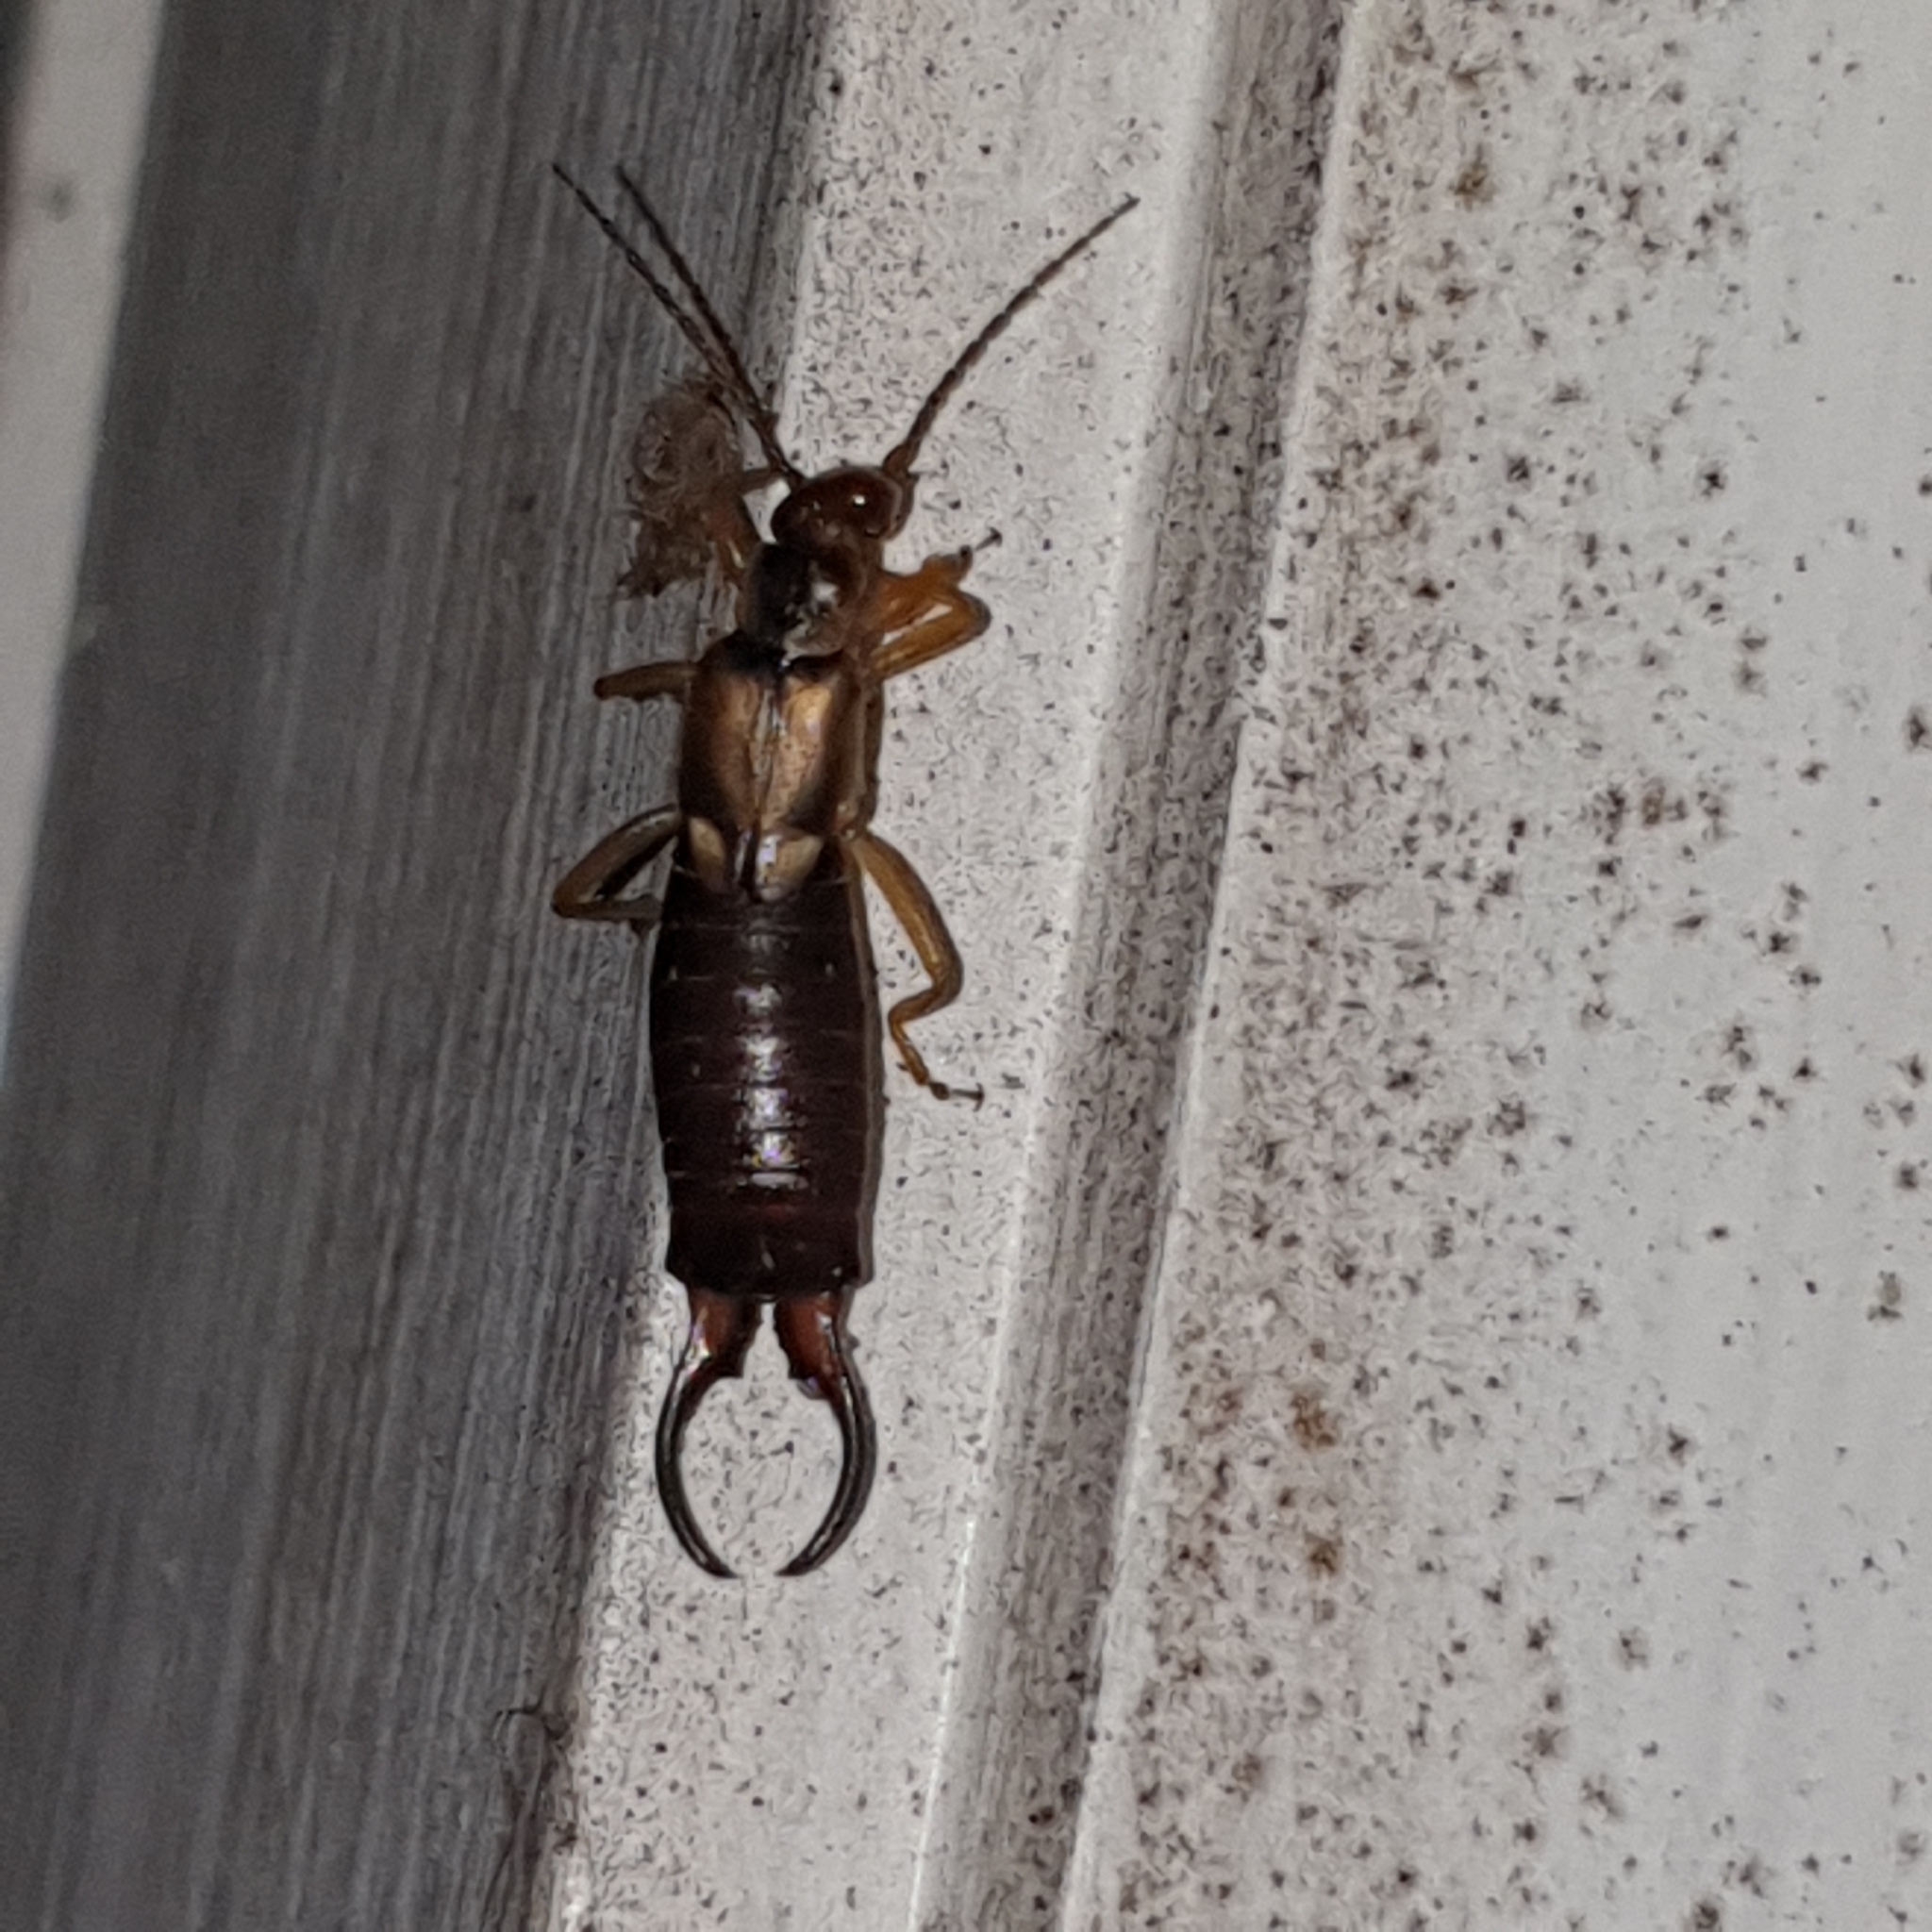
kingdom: Animalia
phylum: Arthropoda
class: Insecta
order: Dermaptera
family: Forficulidae
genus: Forficula
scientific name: Forficula
